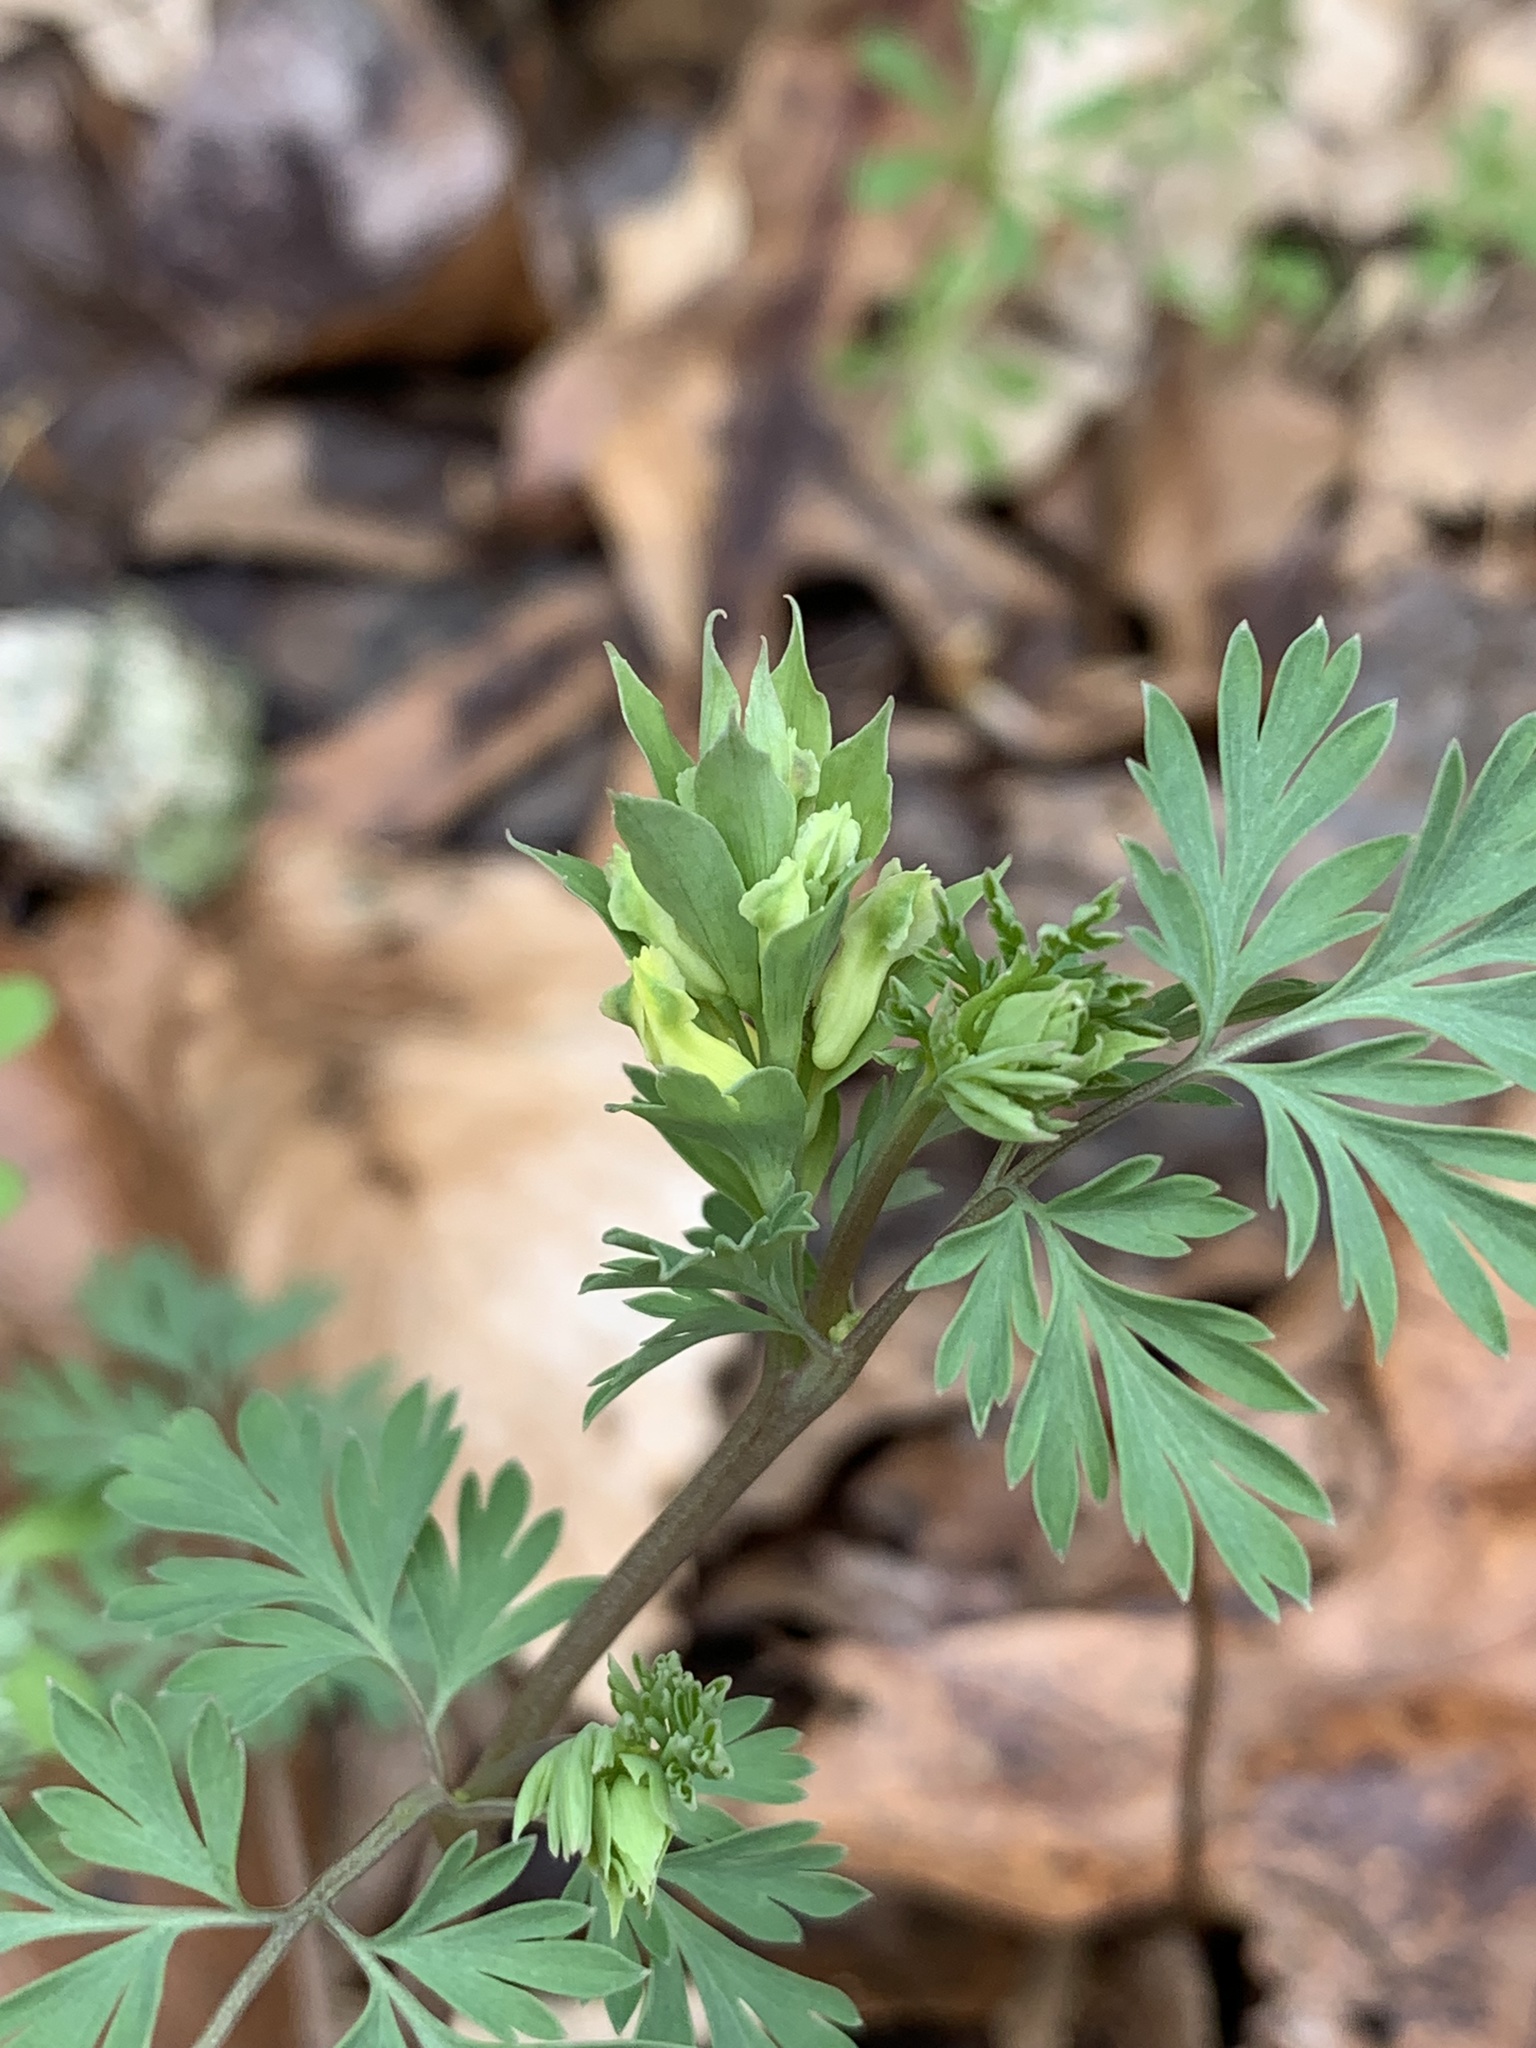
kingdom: Plantae
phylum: Tracheophyta
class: Magnoliopsida
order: Ranunculales
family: Papaveraceae
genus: Corydalis
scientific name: Corydalis flavula
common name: Yellow corydalis
